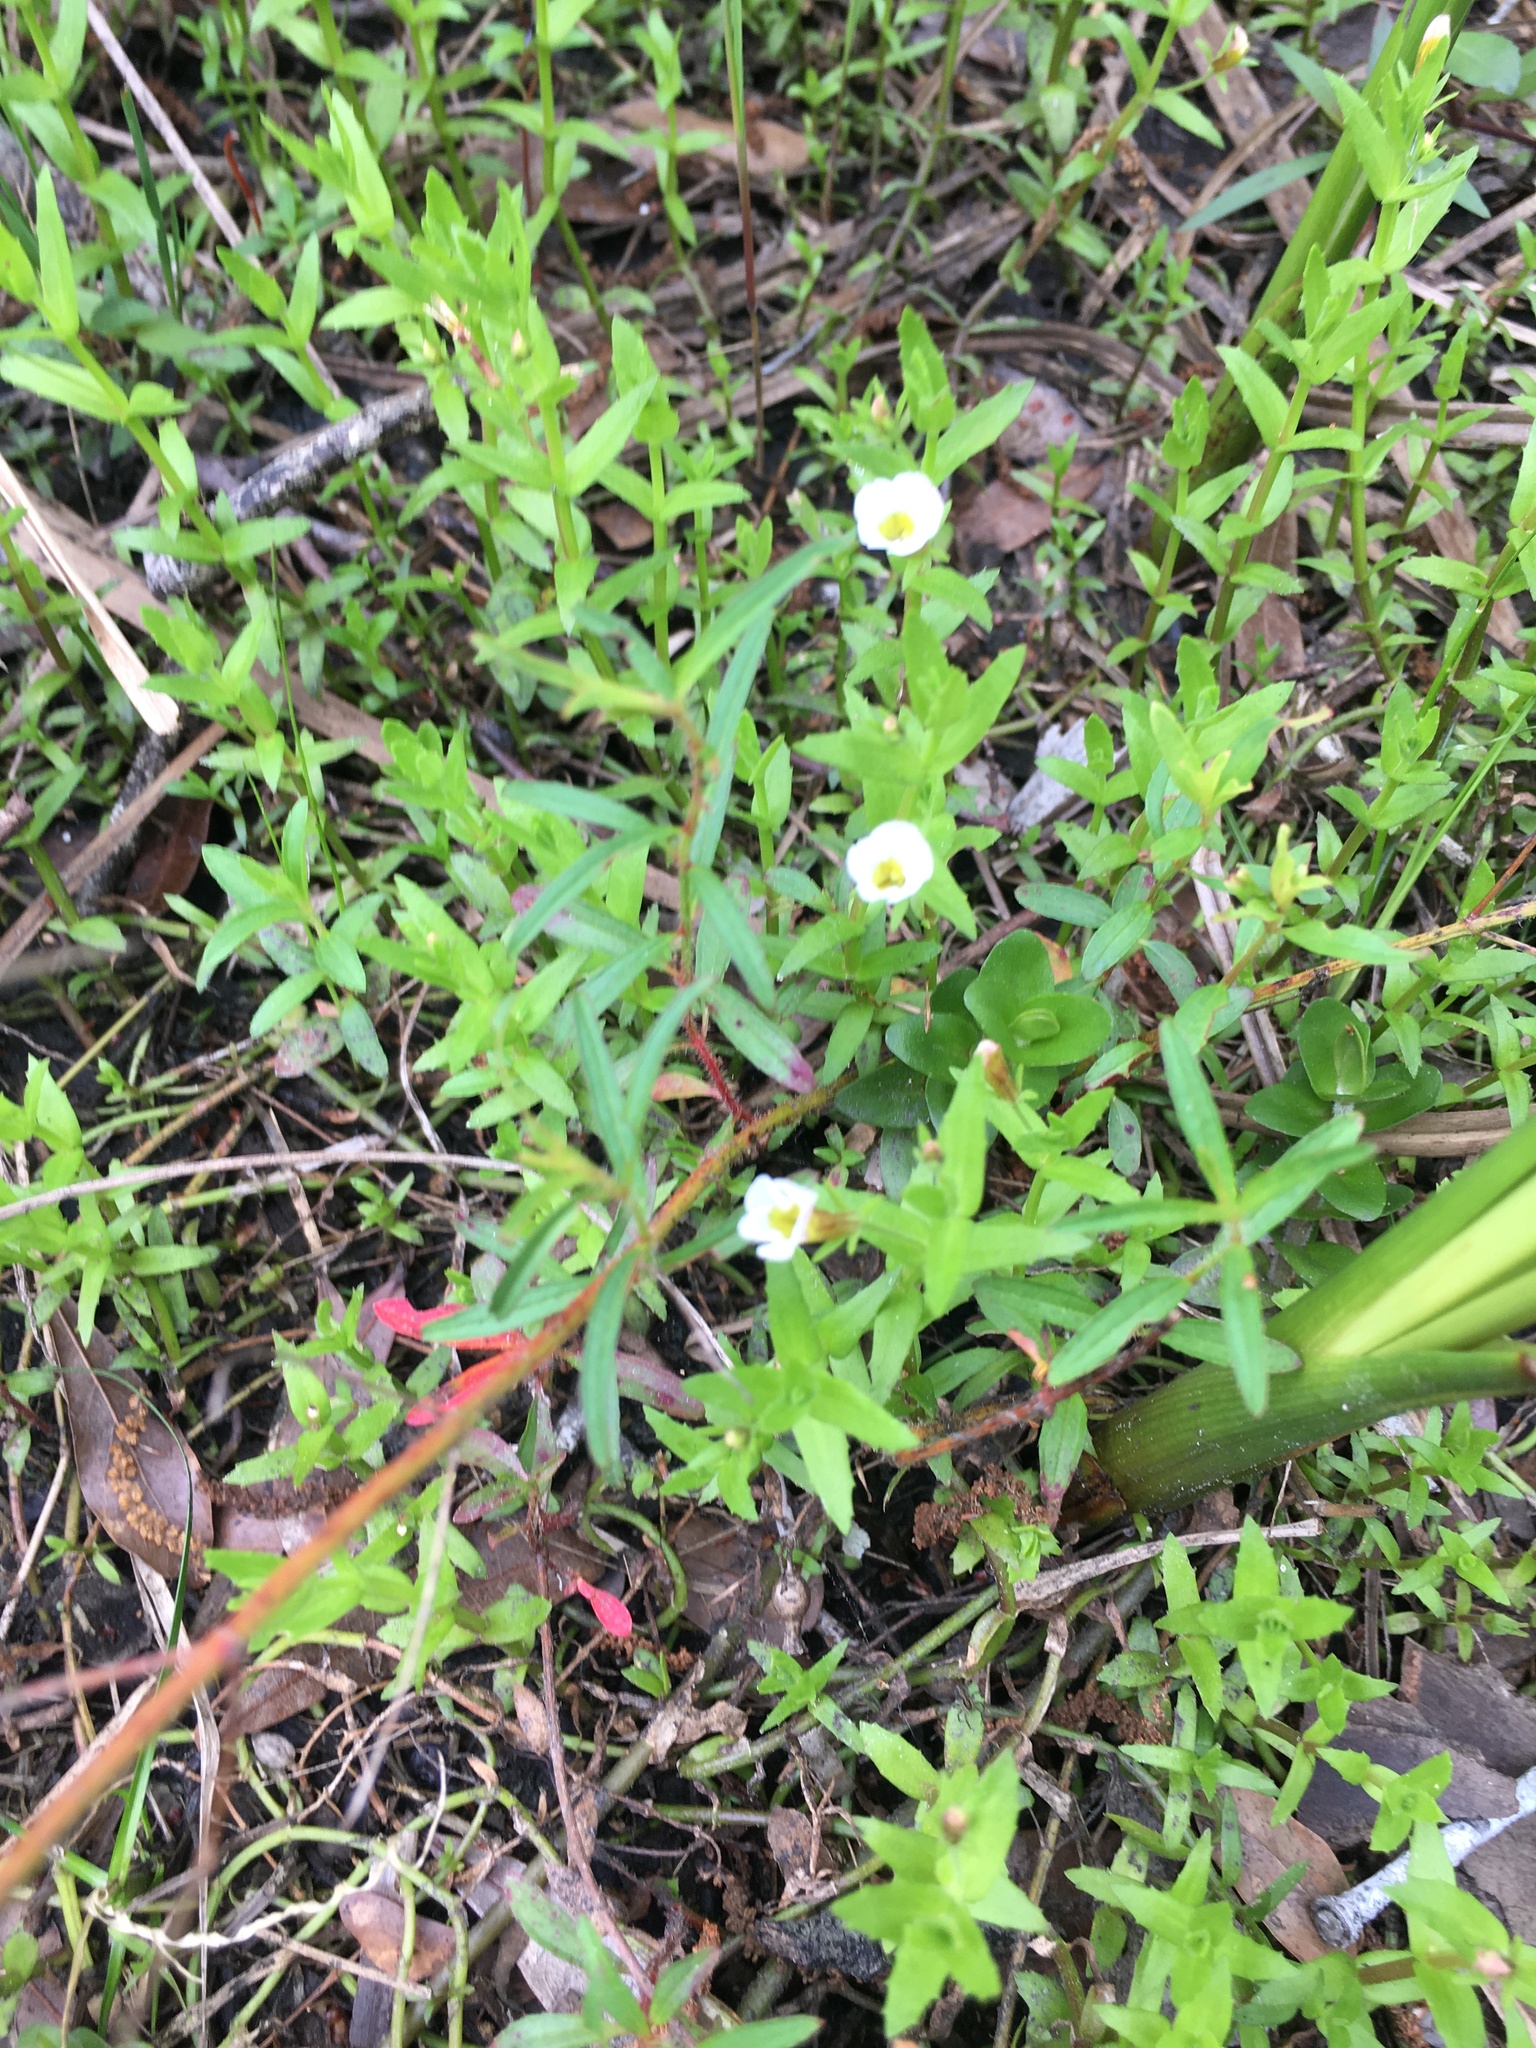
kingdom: Plantae
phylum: Tracheophyta
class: Magnoliopsida
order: Lamiales
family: Plantaginaceae
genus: Gratiola
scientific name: Gratiola ramosa
